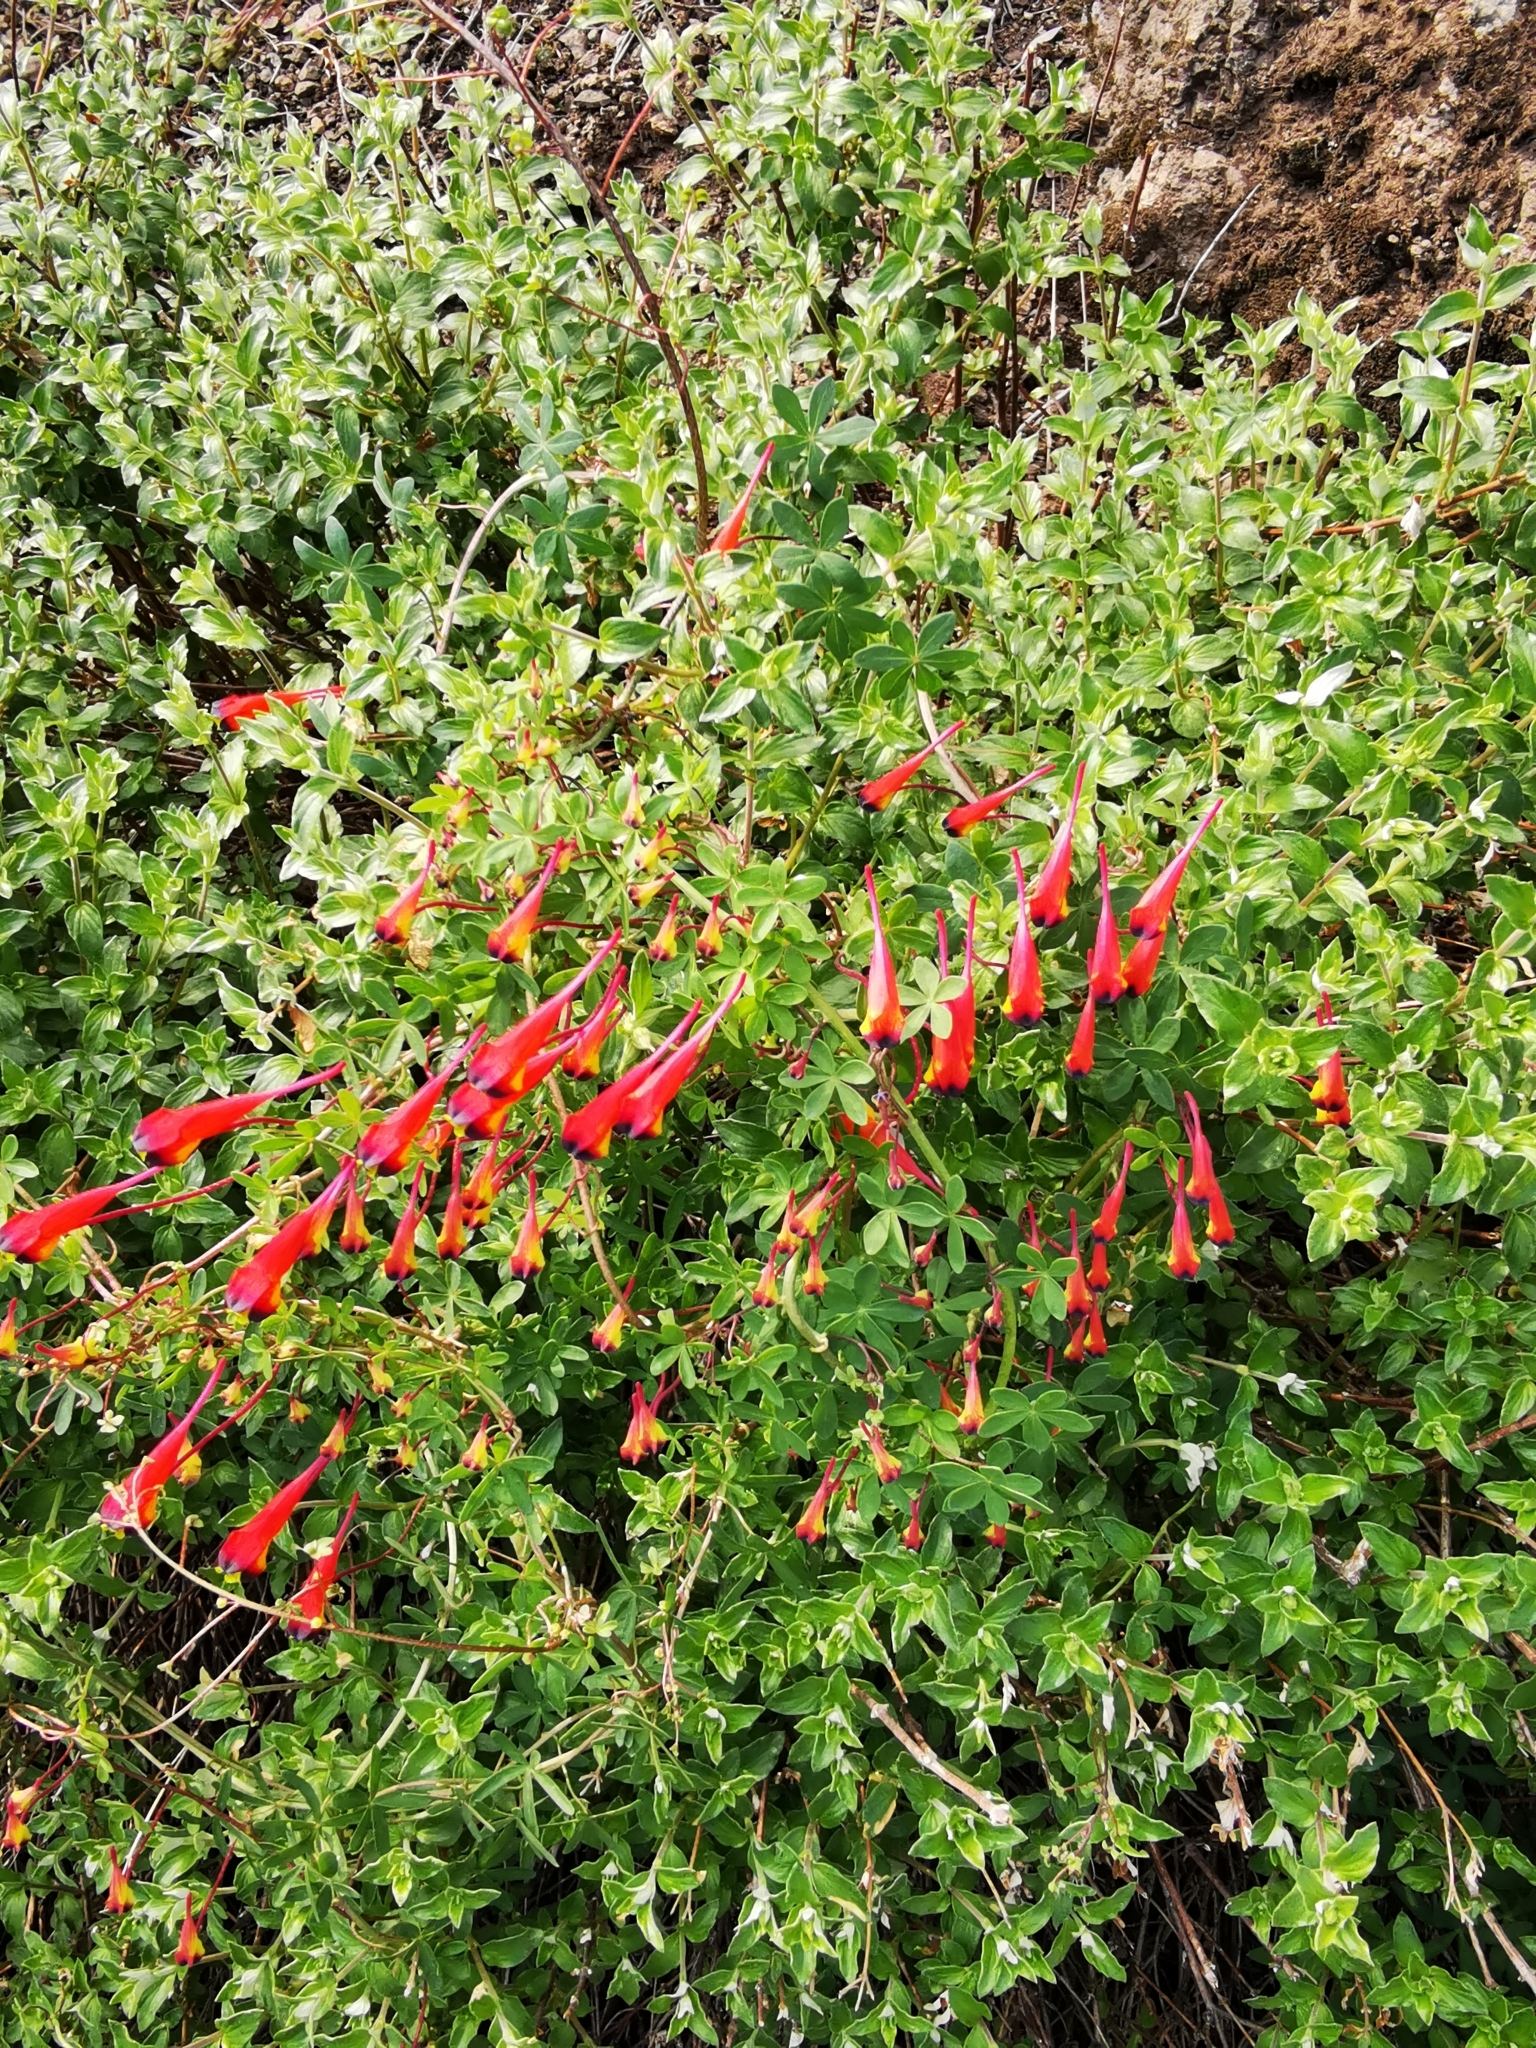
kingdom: Plantae
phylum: Tracheophyta
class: Magnoliopsida
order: Brassicales
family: Tropaeolaceae
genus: Tropaeolum
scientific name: Tropaeolum tricolor
